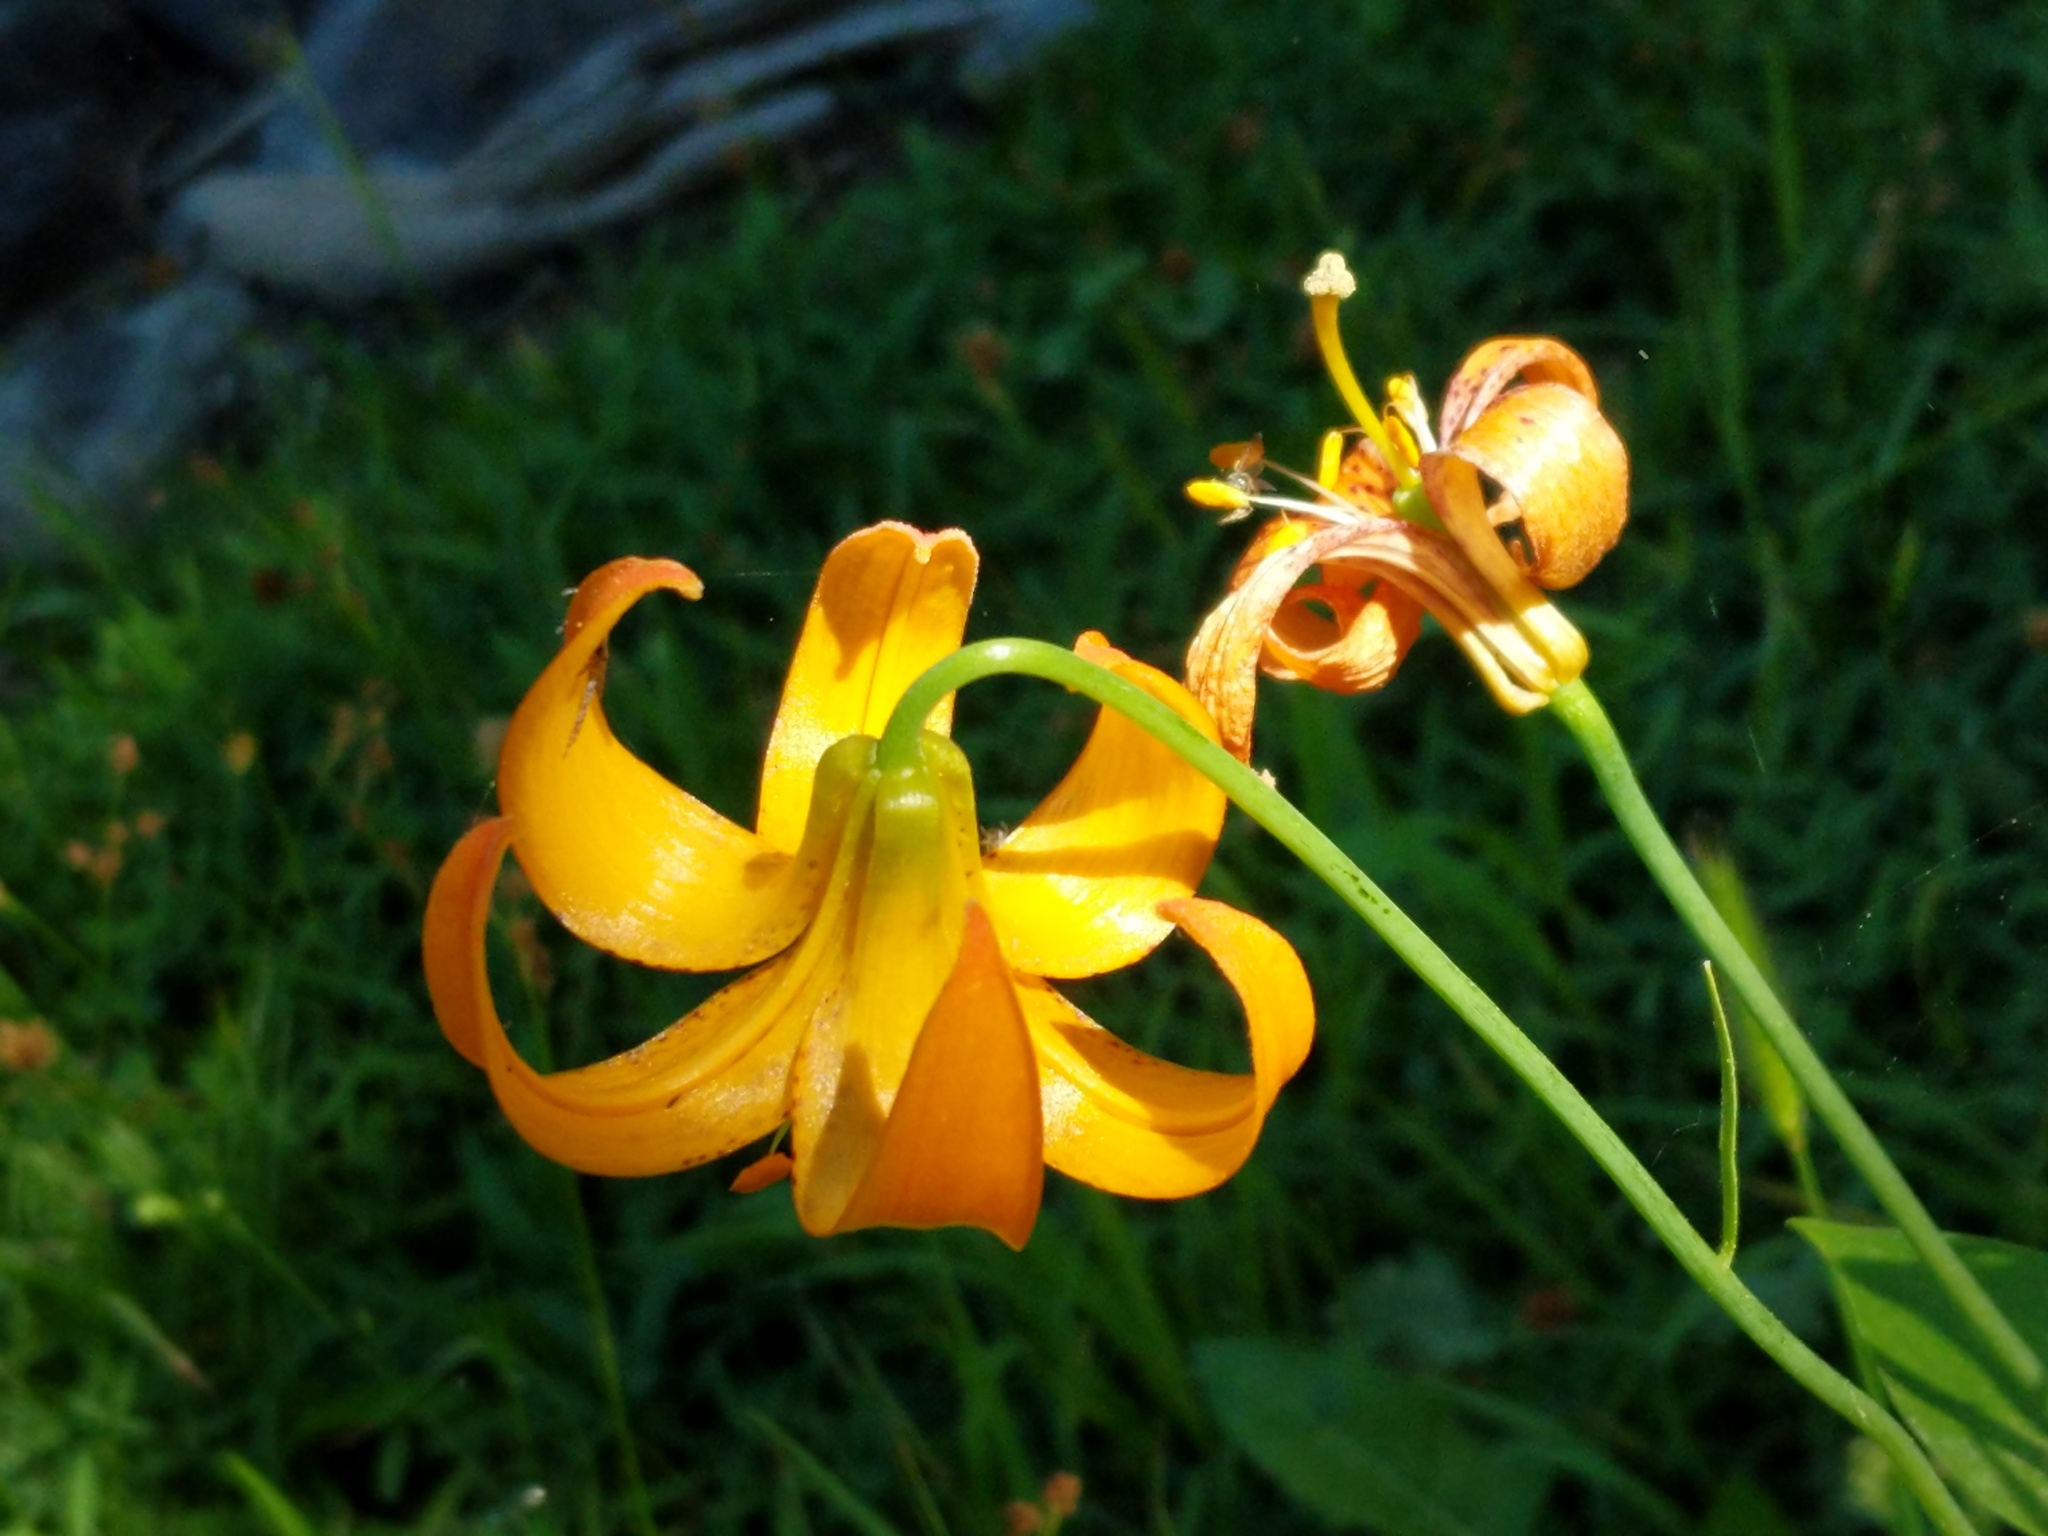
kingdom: Plantae
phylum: Tracheophyta
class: Liliopsida
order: Liliales
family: Liliaceae
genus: Lilium
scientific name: Lilium kelleyanum
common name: Kelley's lily
